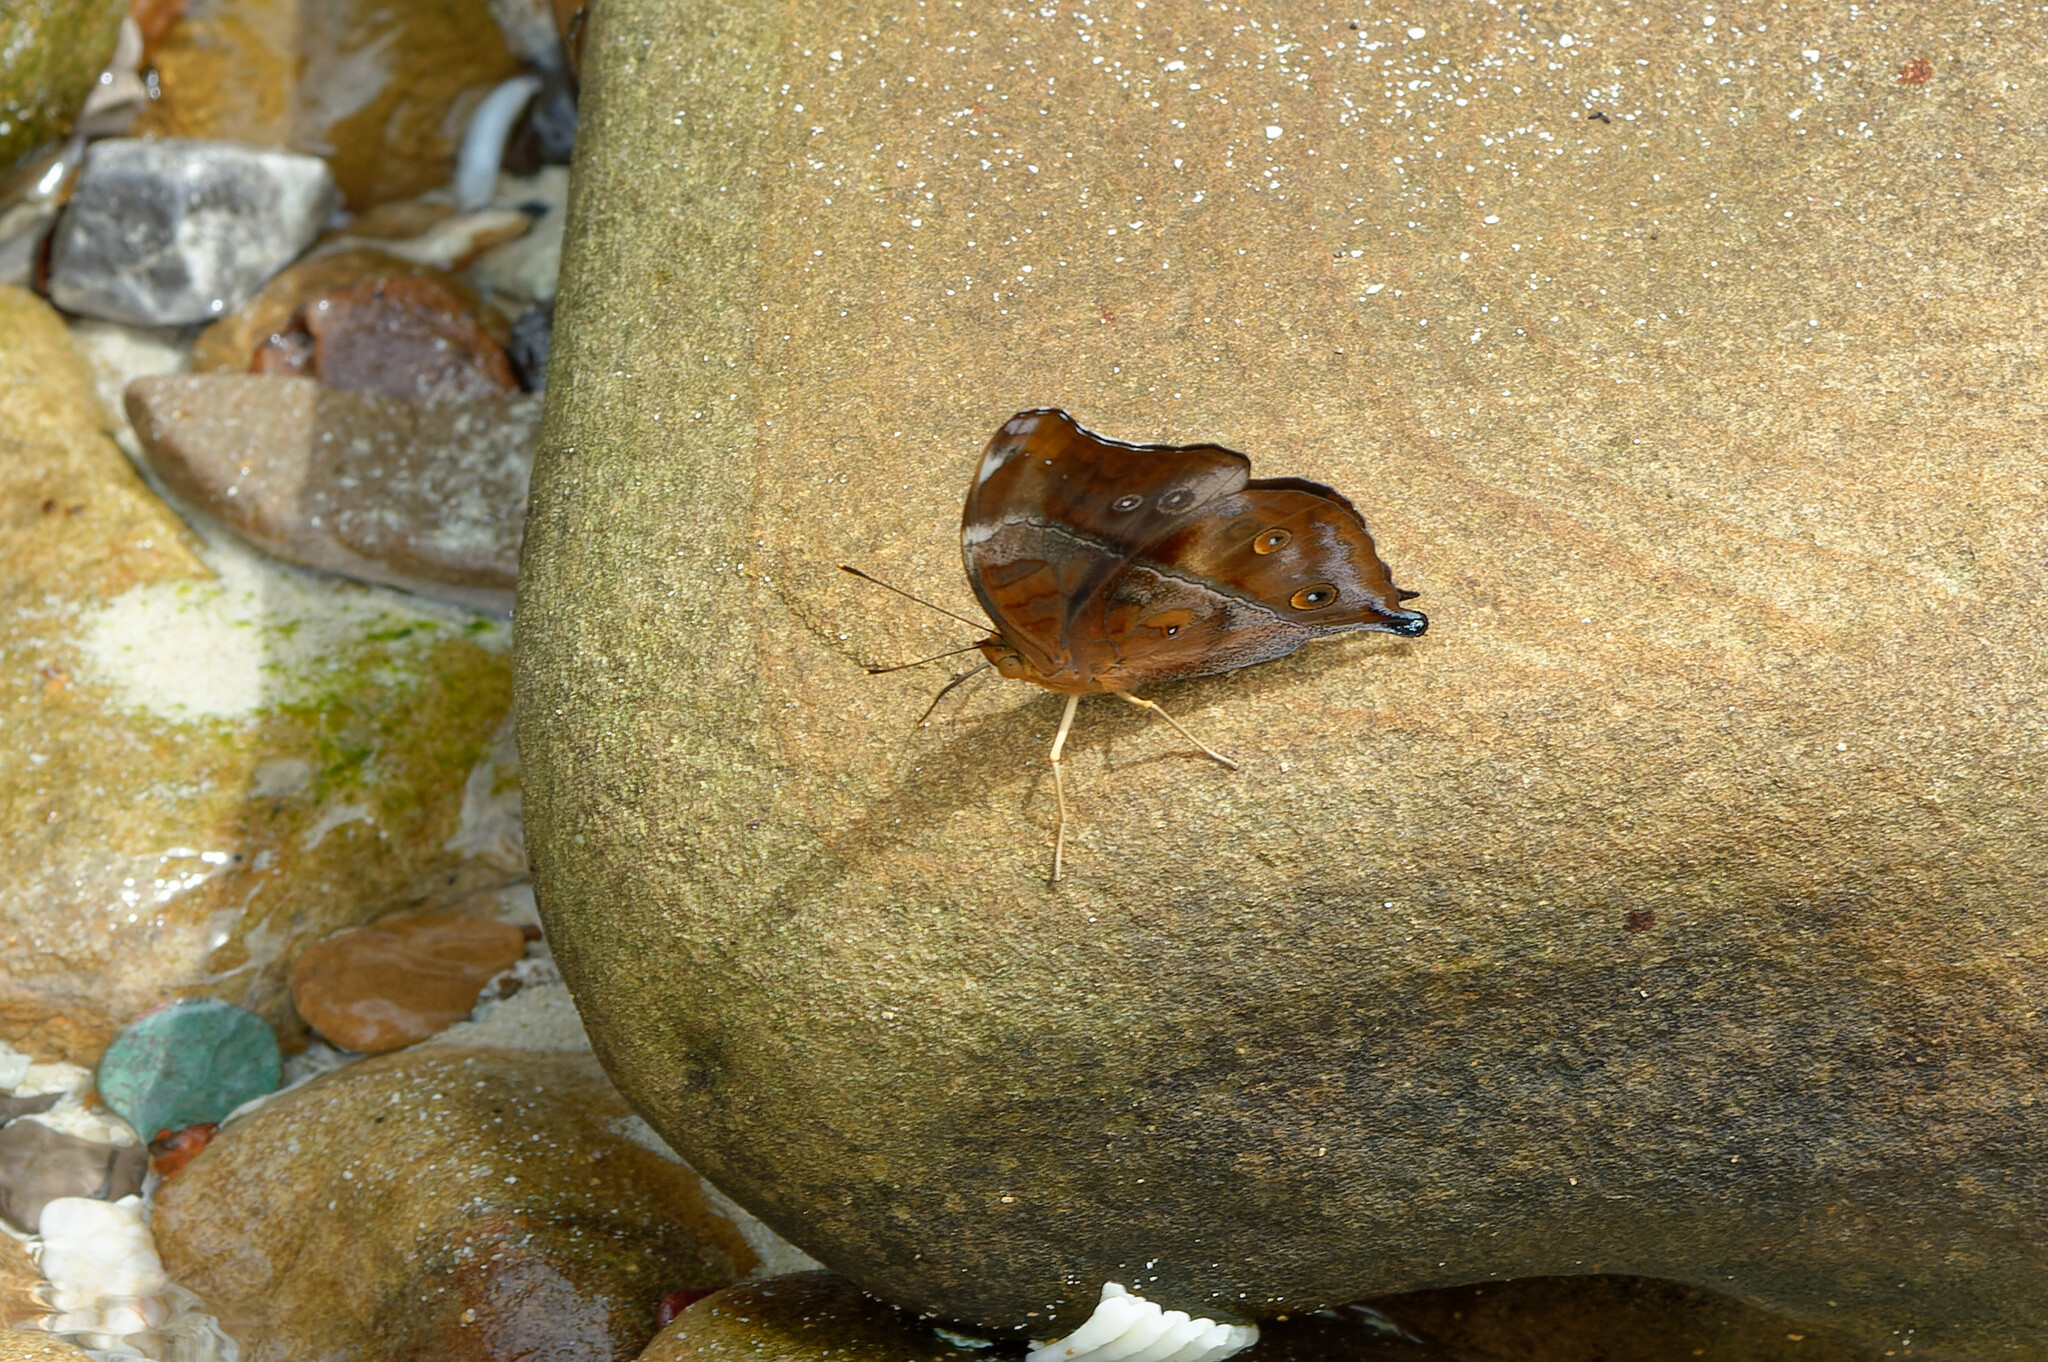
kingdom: Animalia
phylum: Arthropoda
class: Insecta
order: Lepidoptera
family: Nymphalidae
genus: Doleschallia
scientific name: Doleschallia bisaltide
